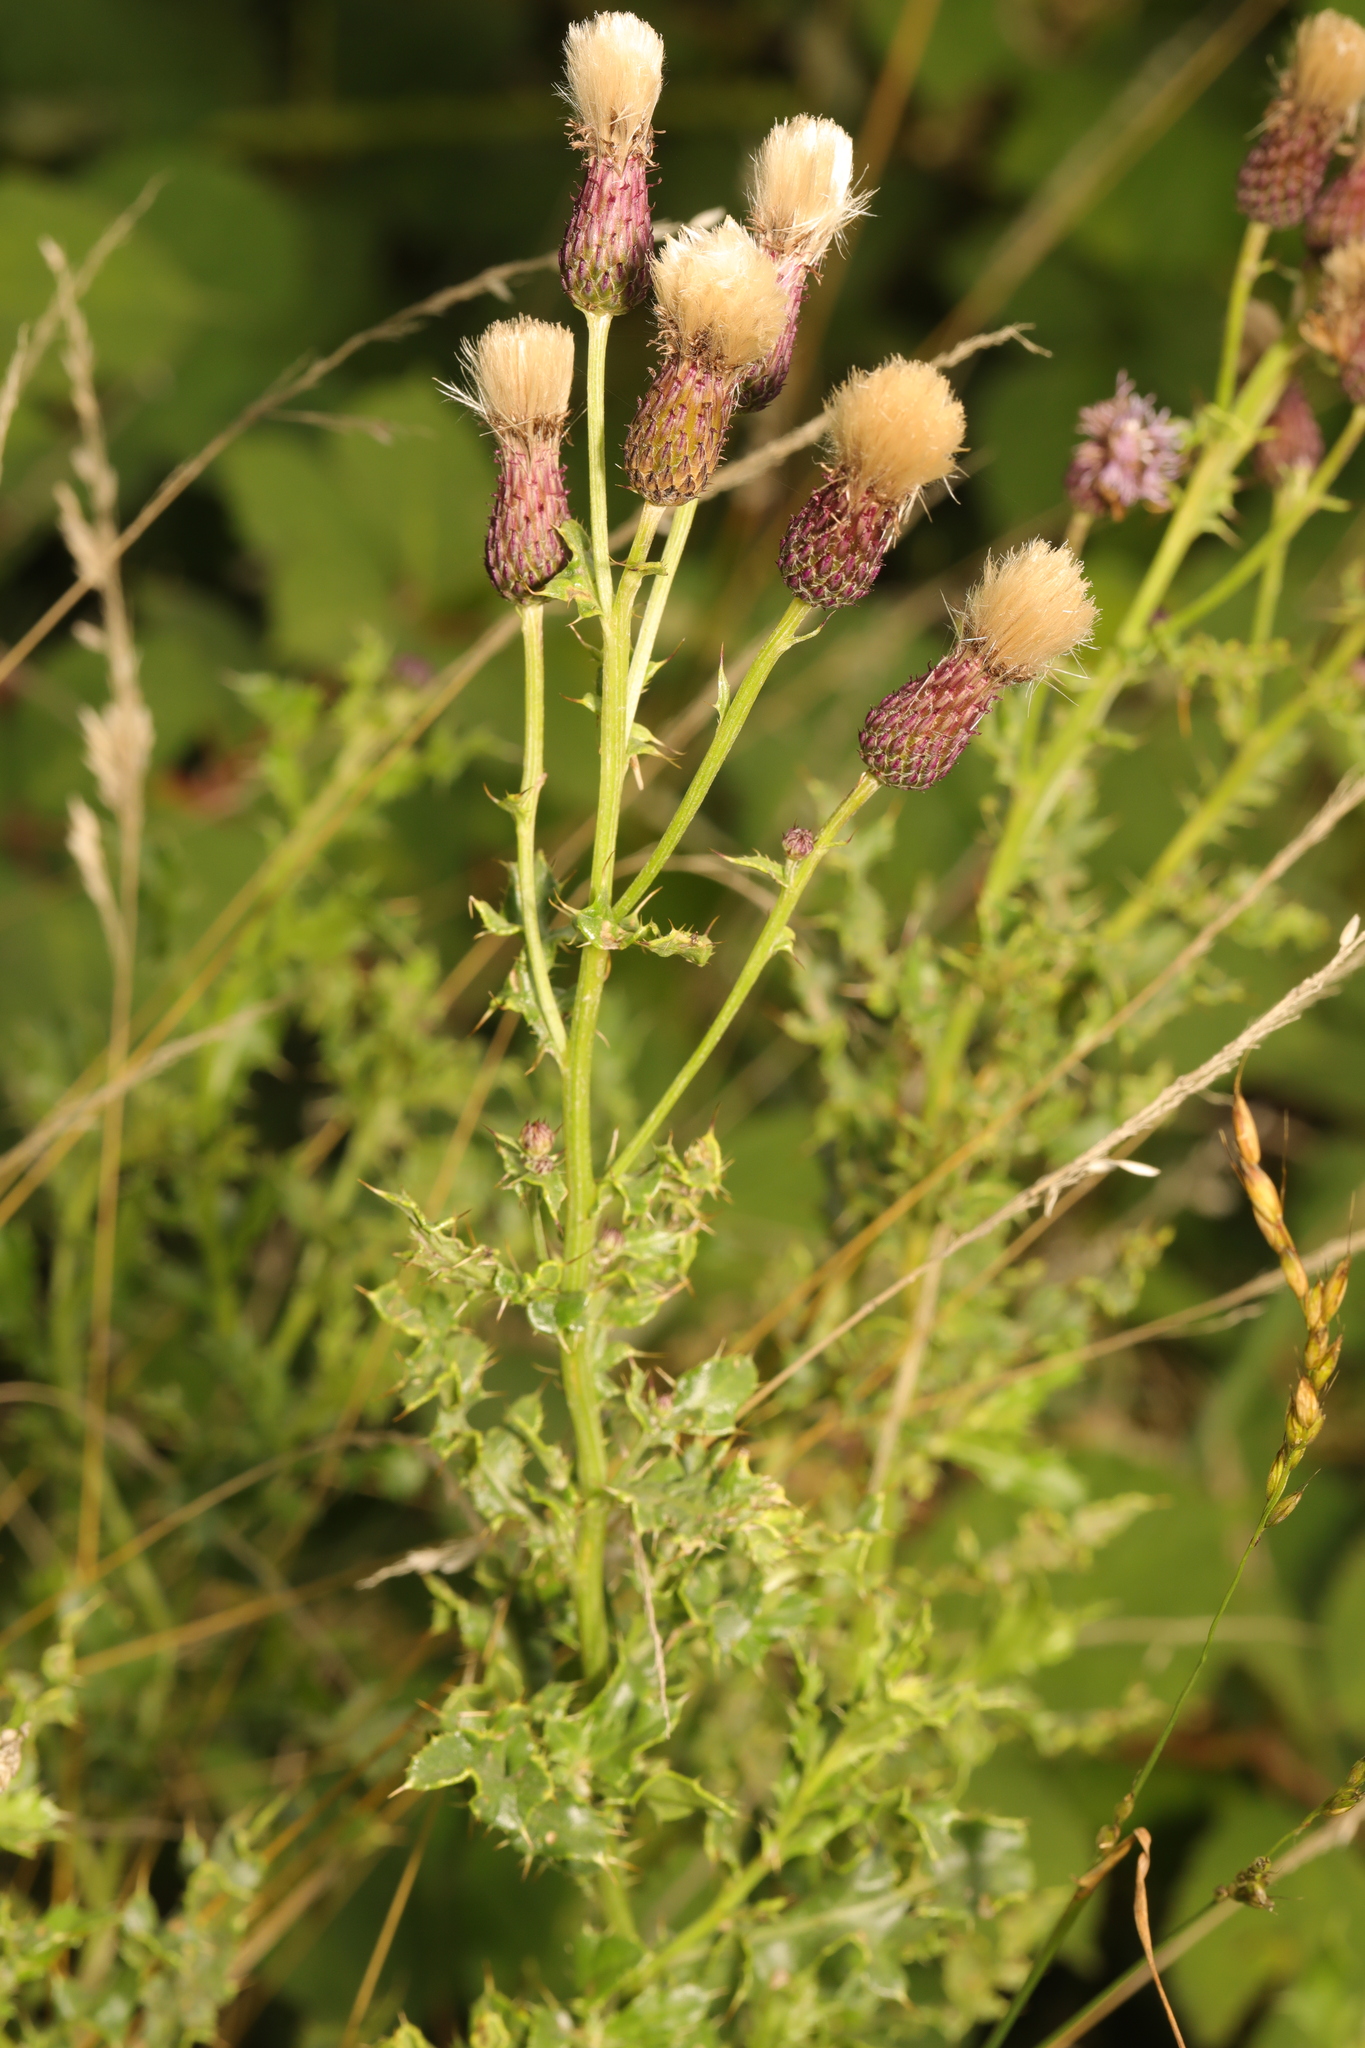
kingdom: Plantae
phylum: Tracheophyta
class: Magnoliopsida
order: Asterales
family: Asteraceae
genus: Cirsium
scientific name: Cirsium arvense
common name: Creeping thistle
